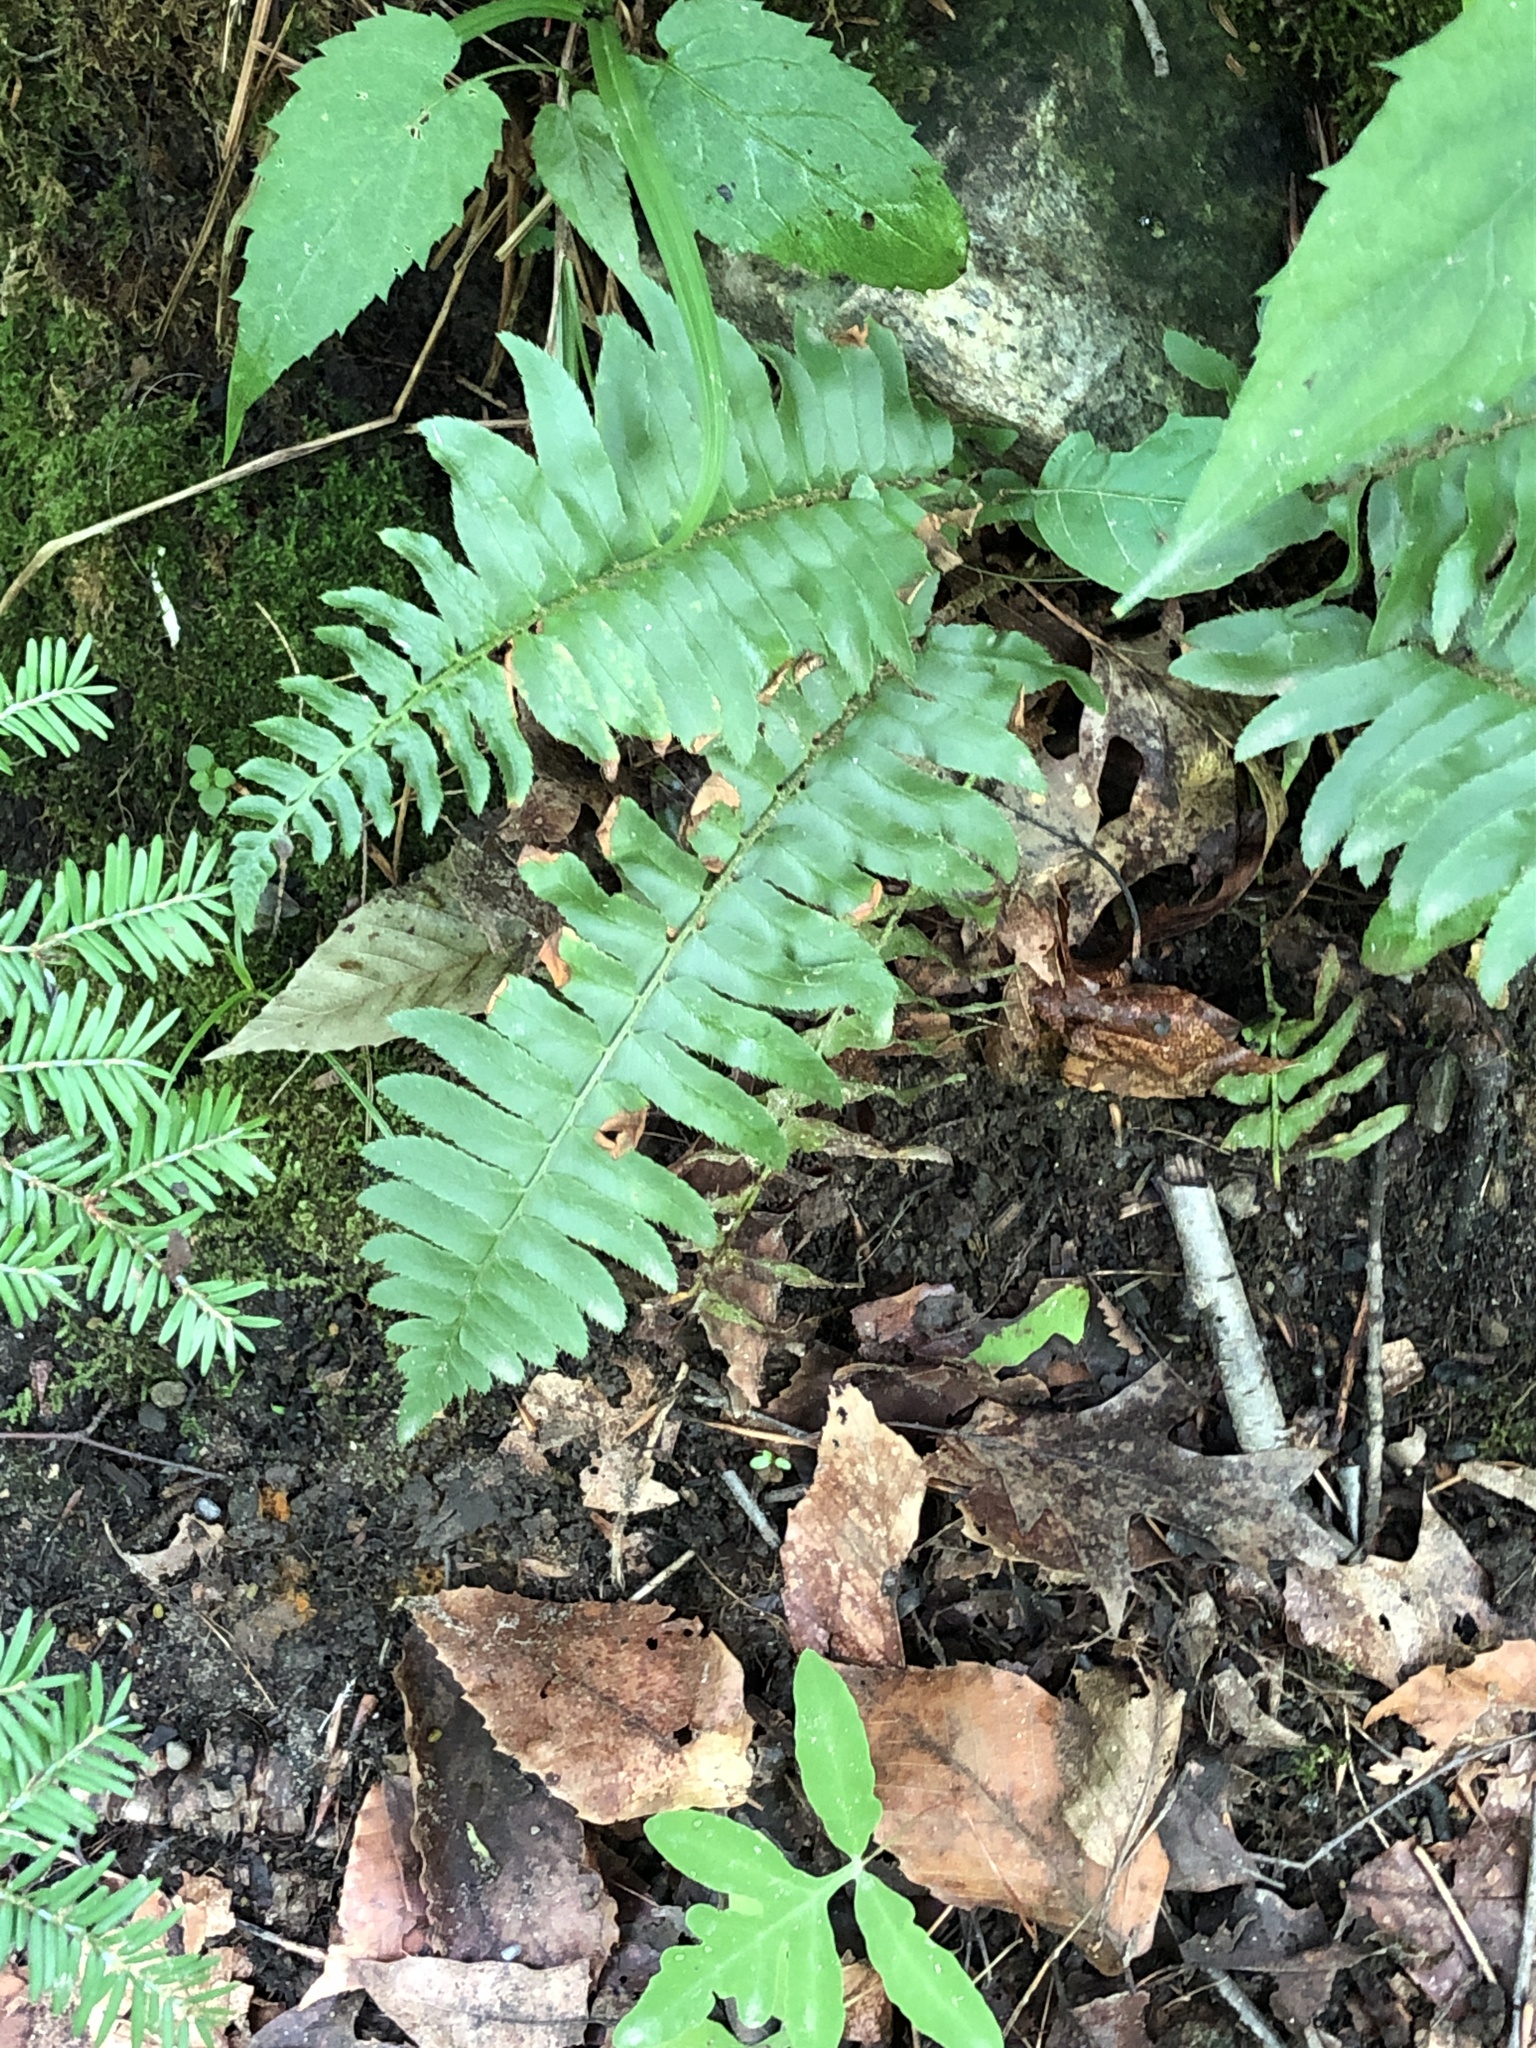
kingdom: Plantae
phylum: Tracheophyta
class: Polypodiopsida
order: Polypodiales
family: Dryopteridaceae
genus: Polystichum
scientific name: Polystichum acrostichoides
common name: Christmas fern
